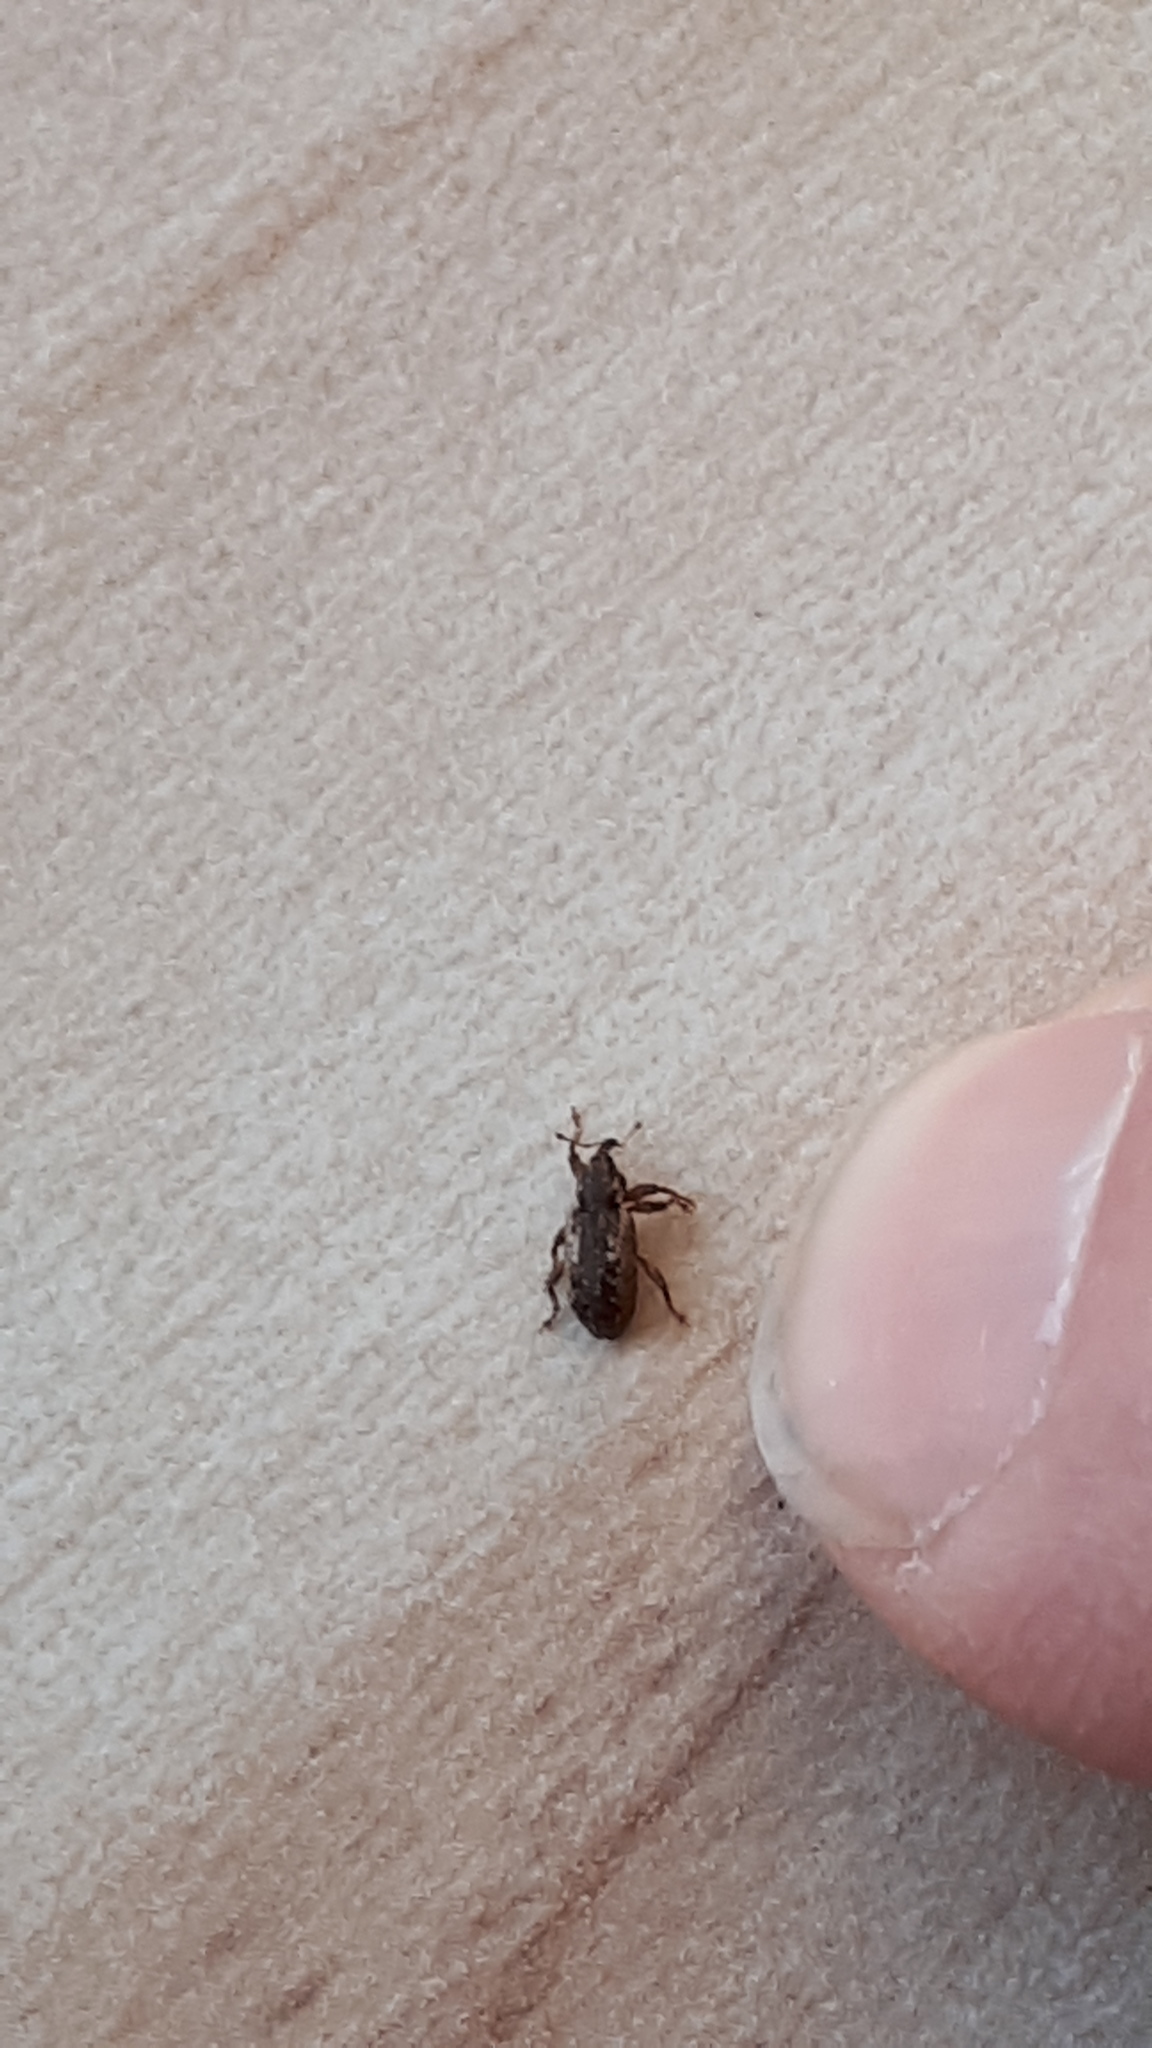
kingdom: Animalia
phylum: Arthropoda
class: Insecta
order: Coleoptera
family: Curculionidae
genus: Dorytomus
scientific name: Dorytomus ictor
